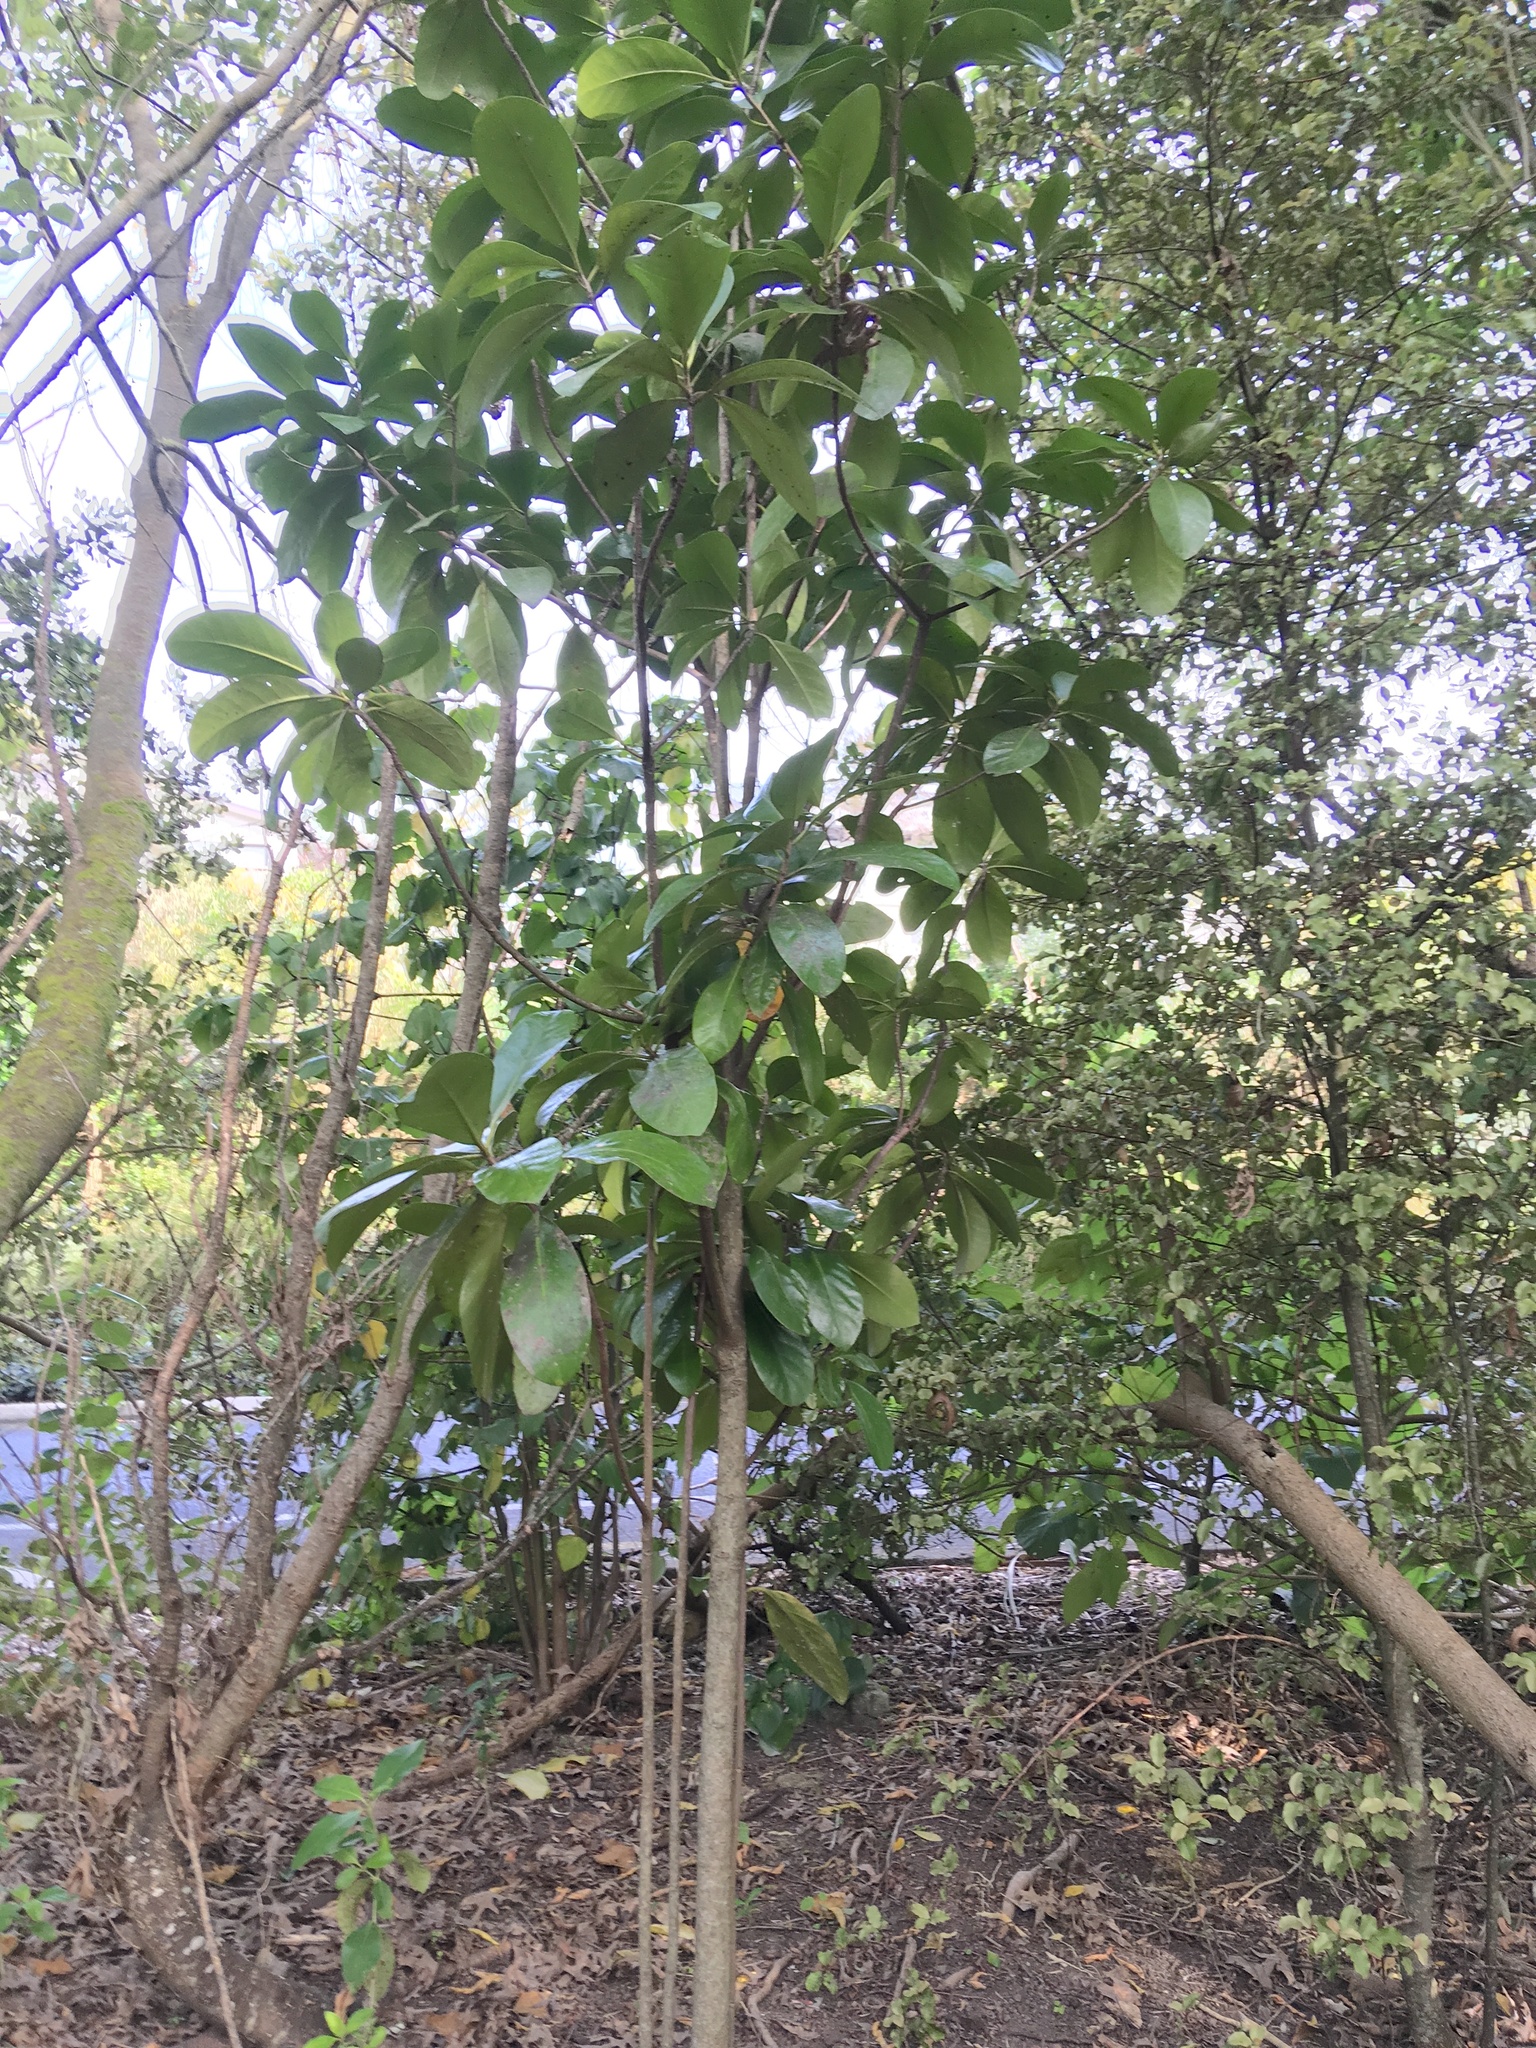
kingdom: Plantae
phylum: Tracheophyta
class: Magnoliopsida
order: Cucurbitales
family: Corynocarpaceae
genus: Corynocarpus
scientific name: Corynocarpus laevigatus
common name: New zealand laurel
